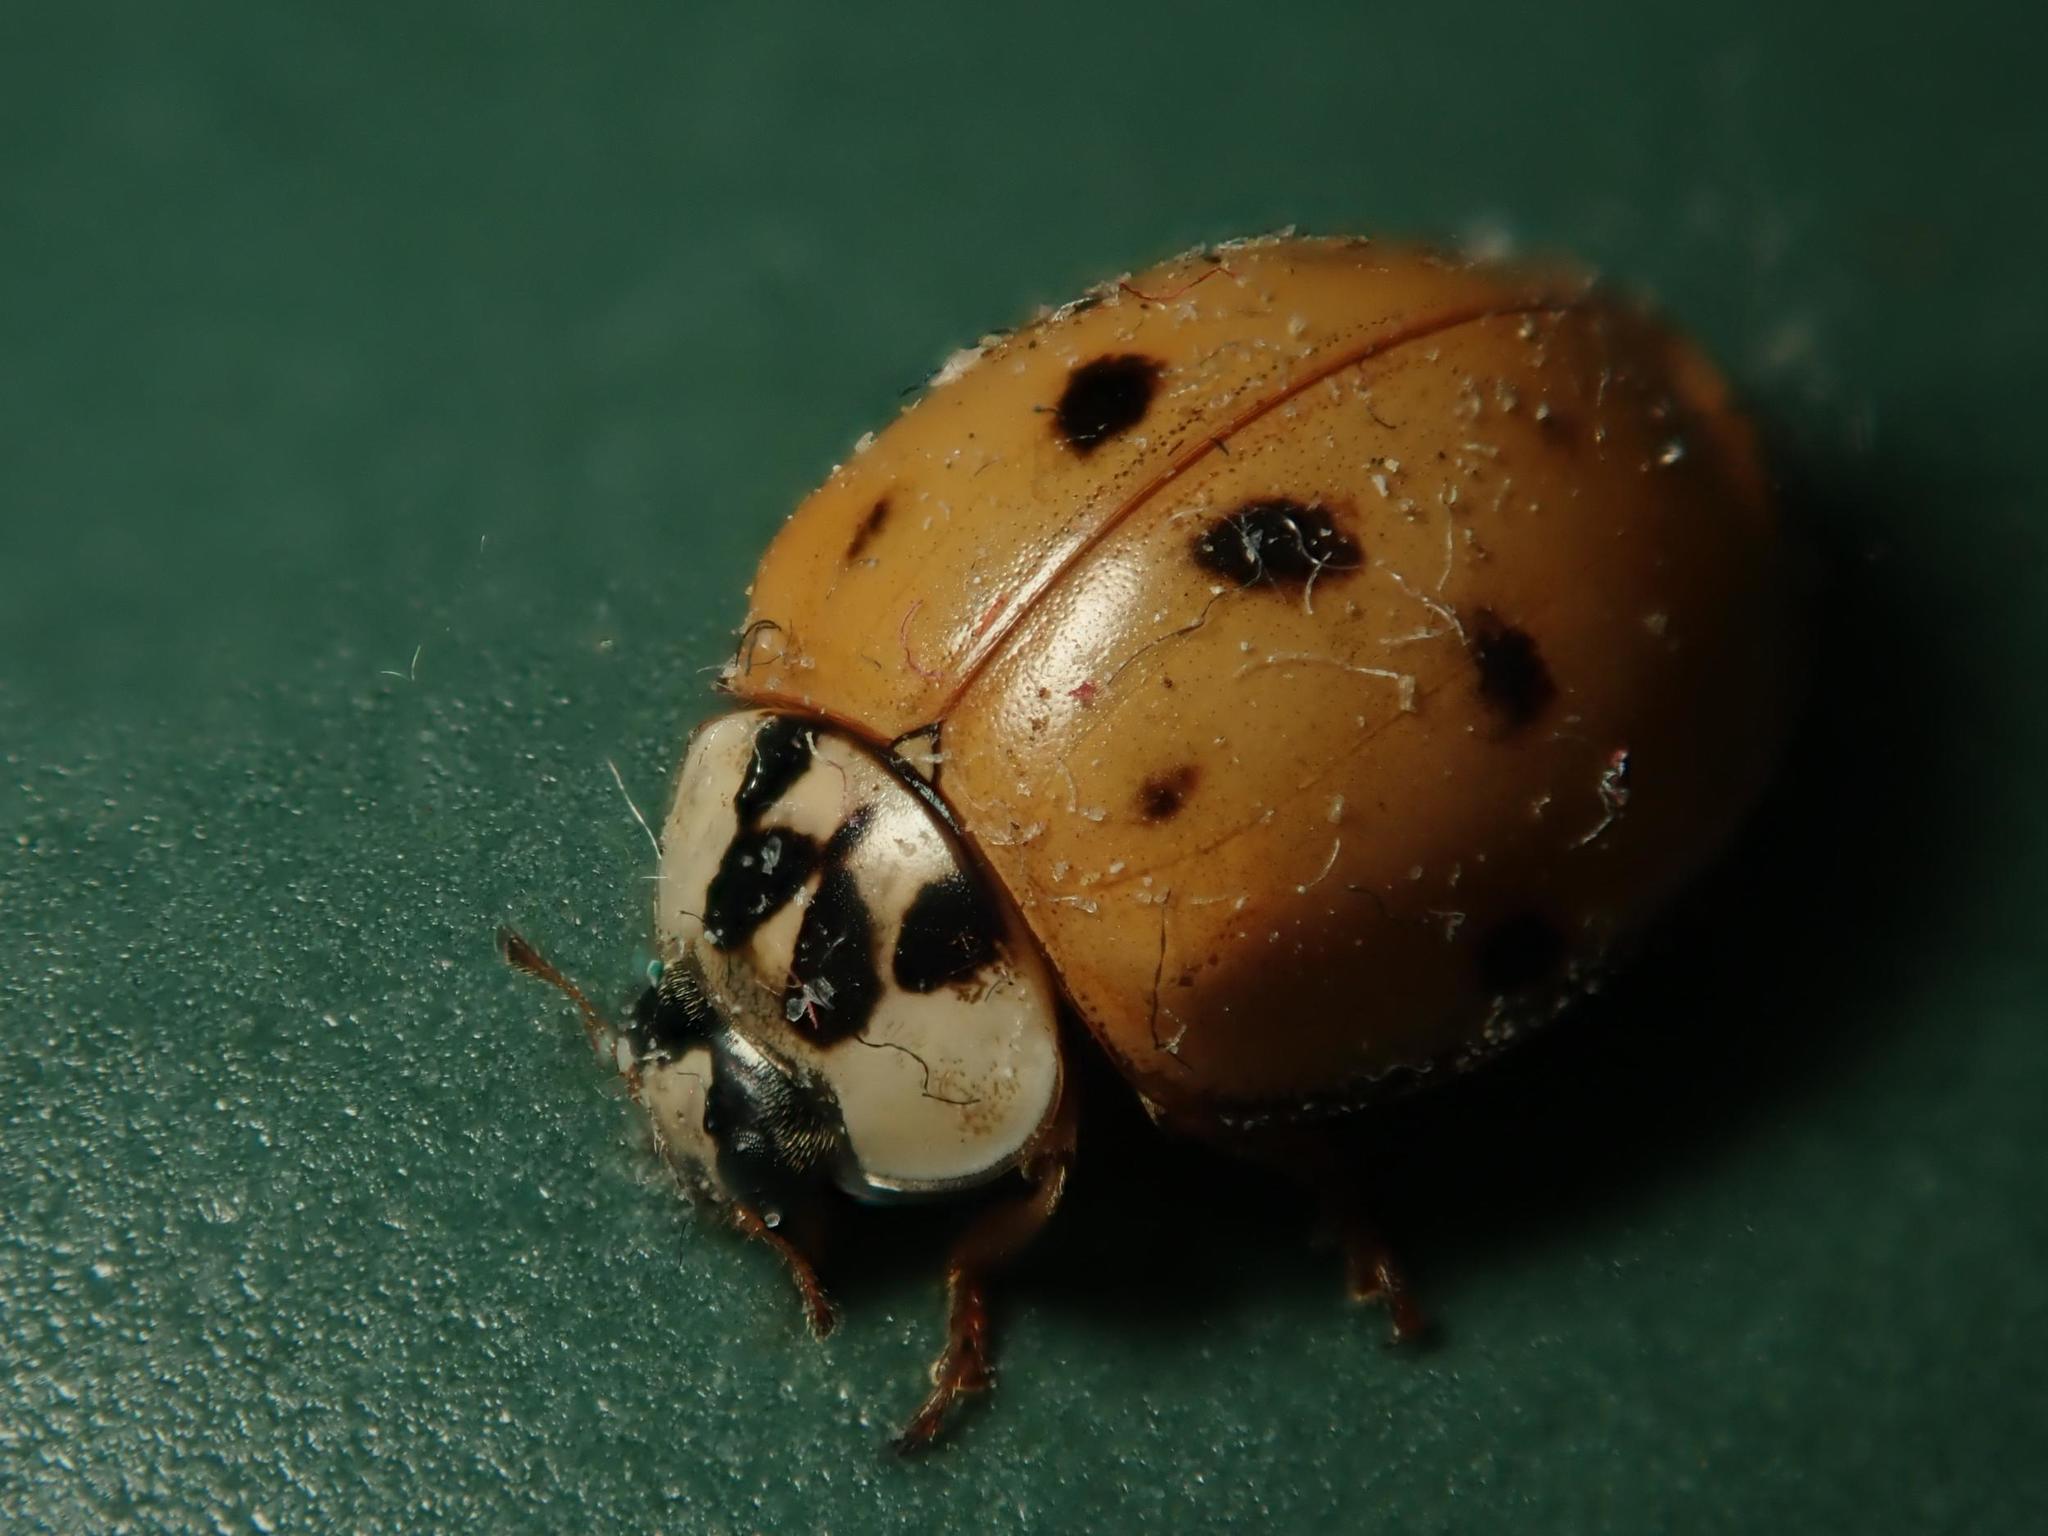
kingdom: Animalia
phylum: Arthropoda
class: Insecta
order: Coleoptera
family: Coccinellidae
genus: Harmonia
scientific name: Harmonia axyridis
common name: Harlequin ladybird
